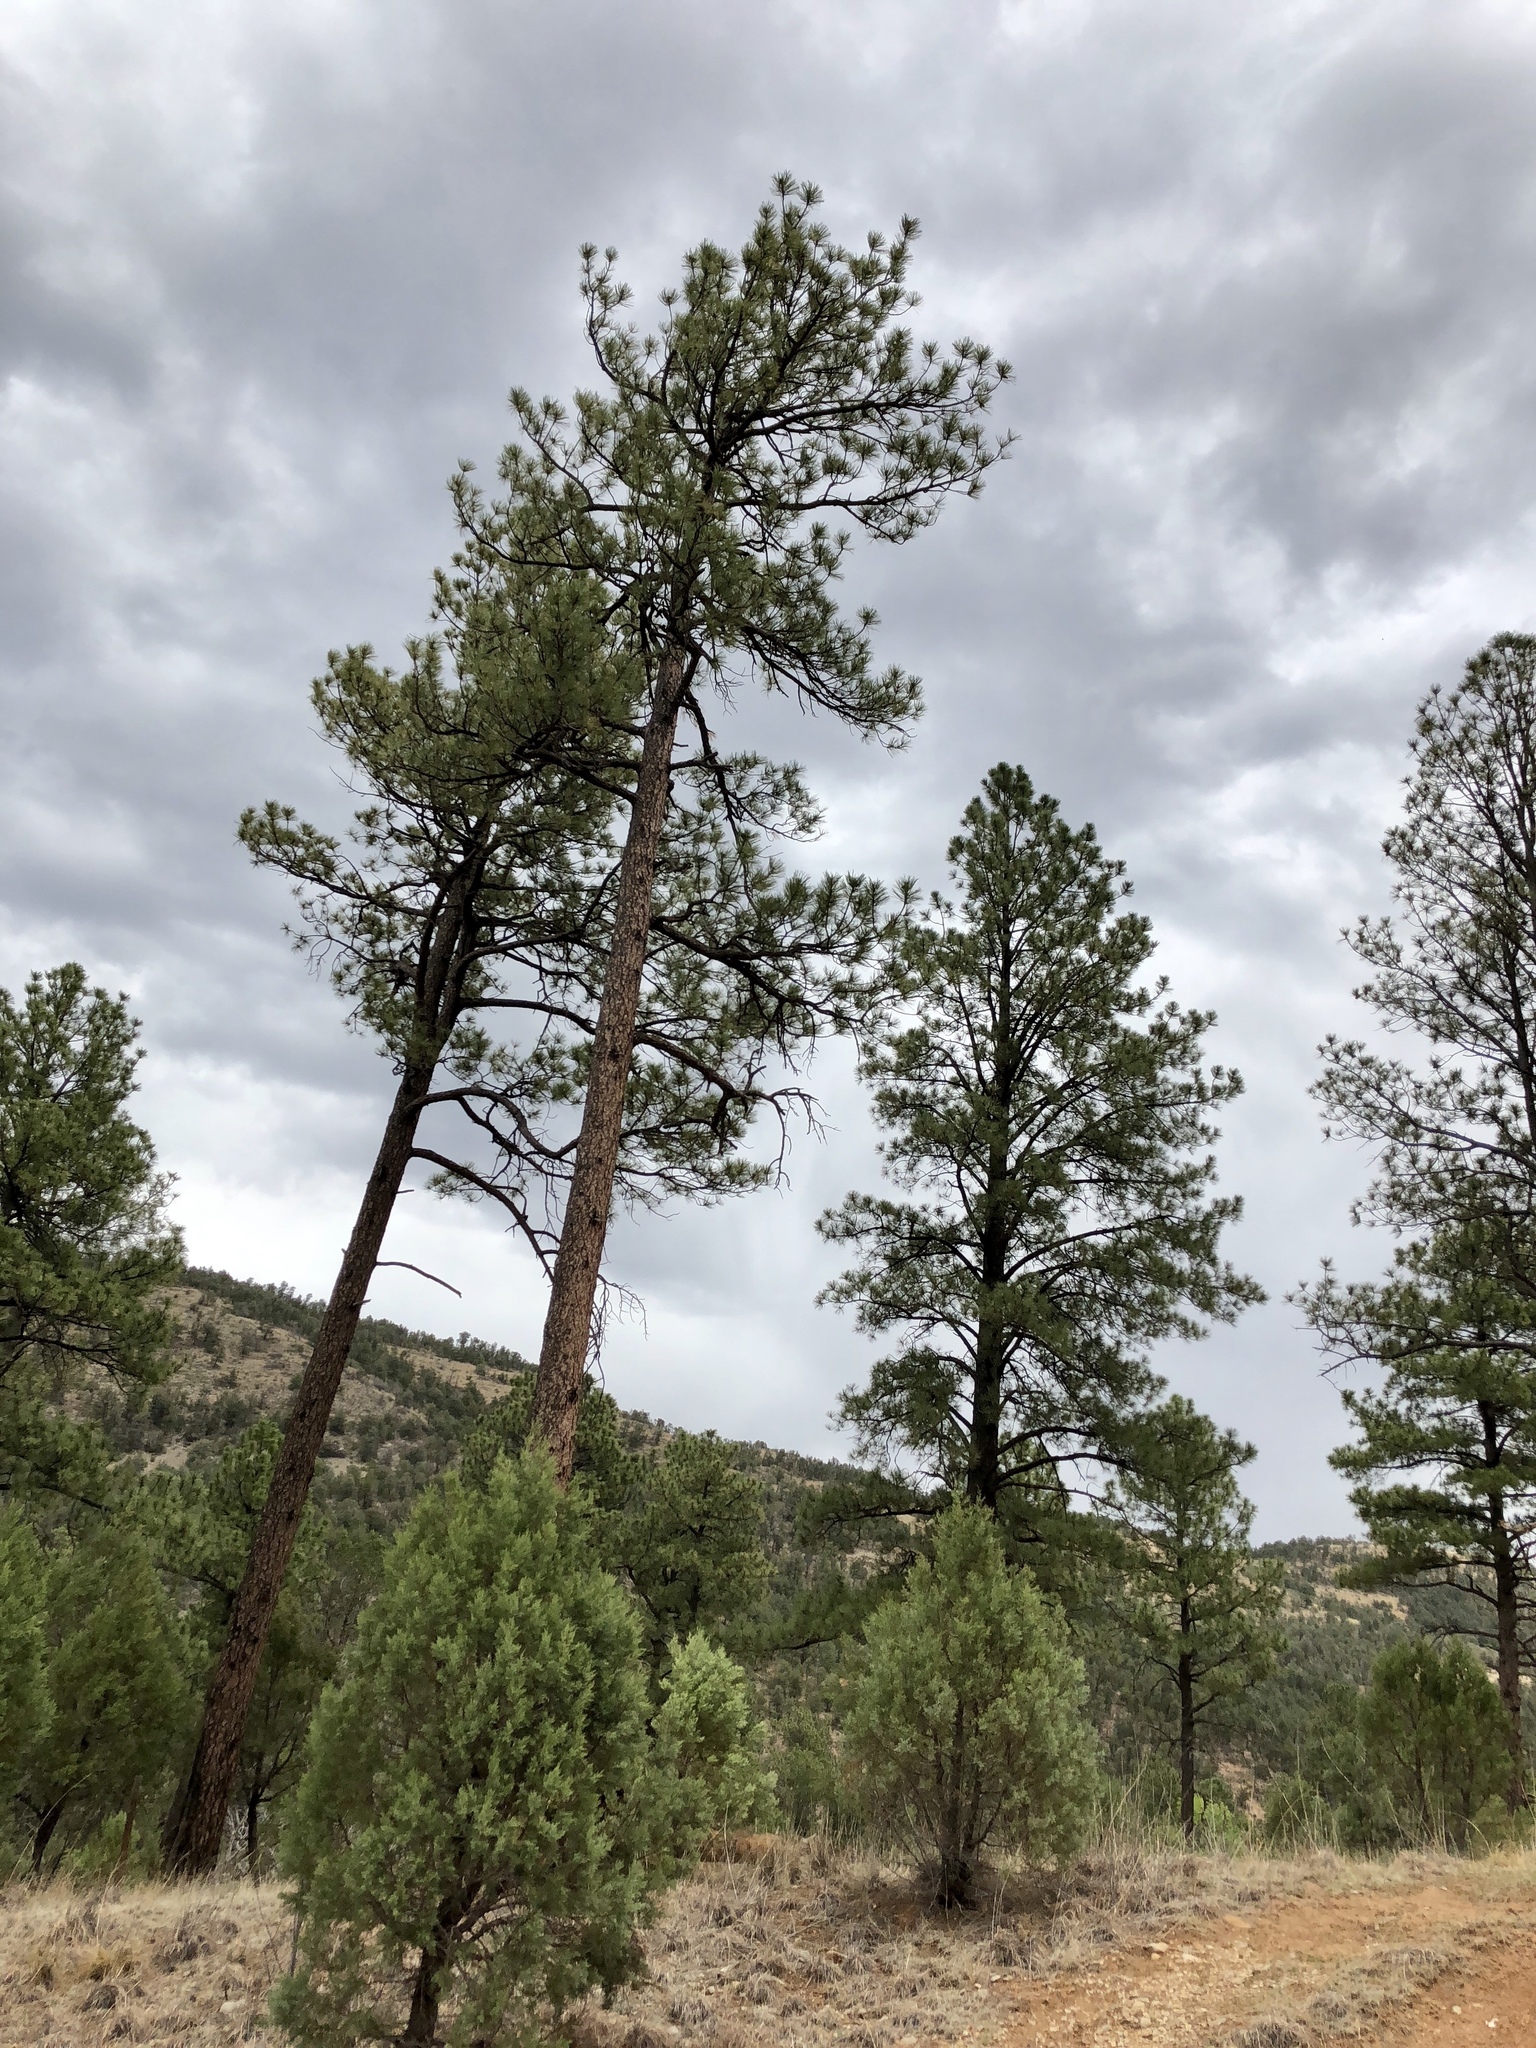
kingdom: Plantae
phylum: Tracheophyta
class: Pinopsida
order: Pinales
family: Pinaceae
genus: Pinus
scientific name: Pinus ponderosa
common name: Western yellow-pine
